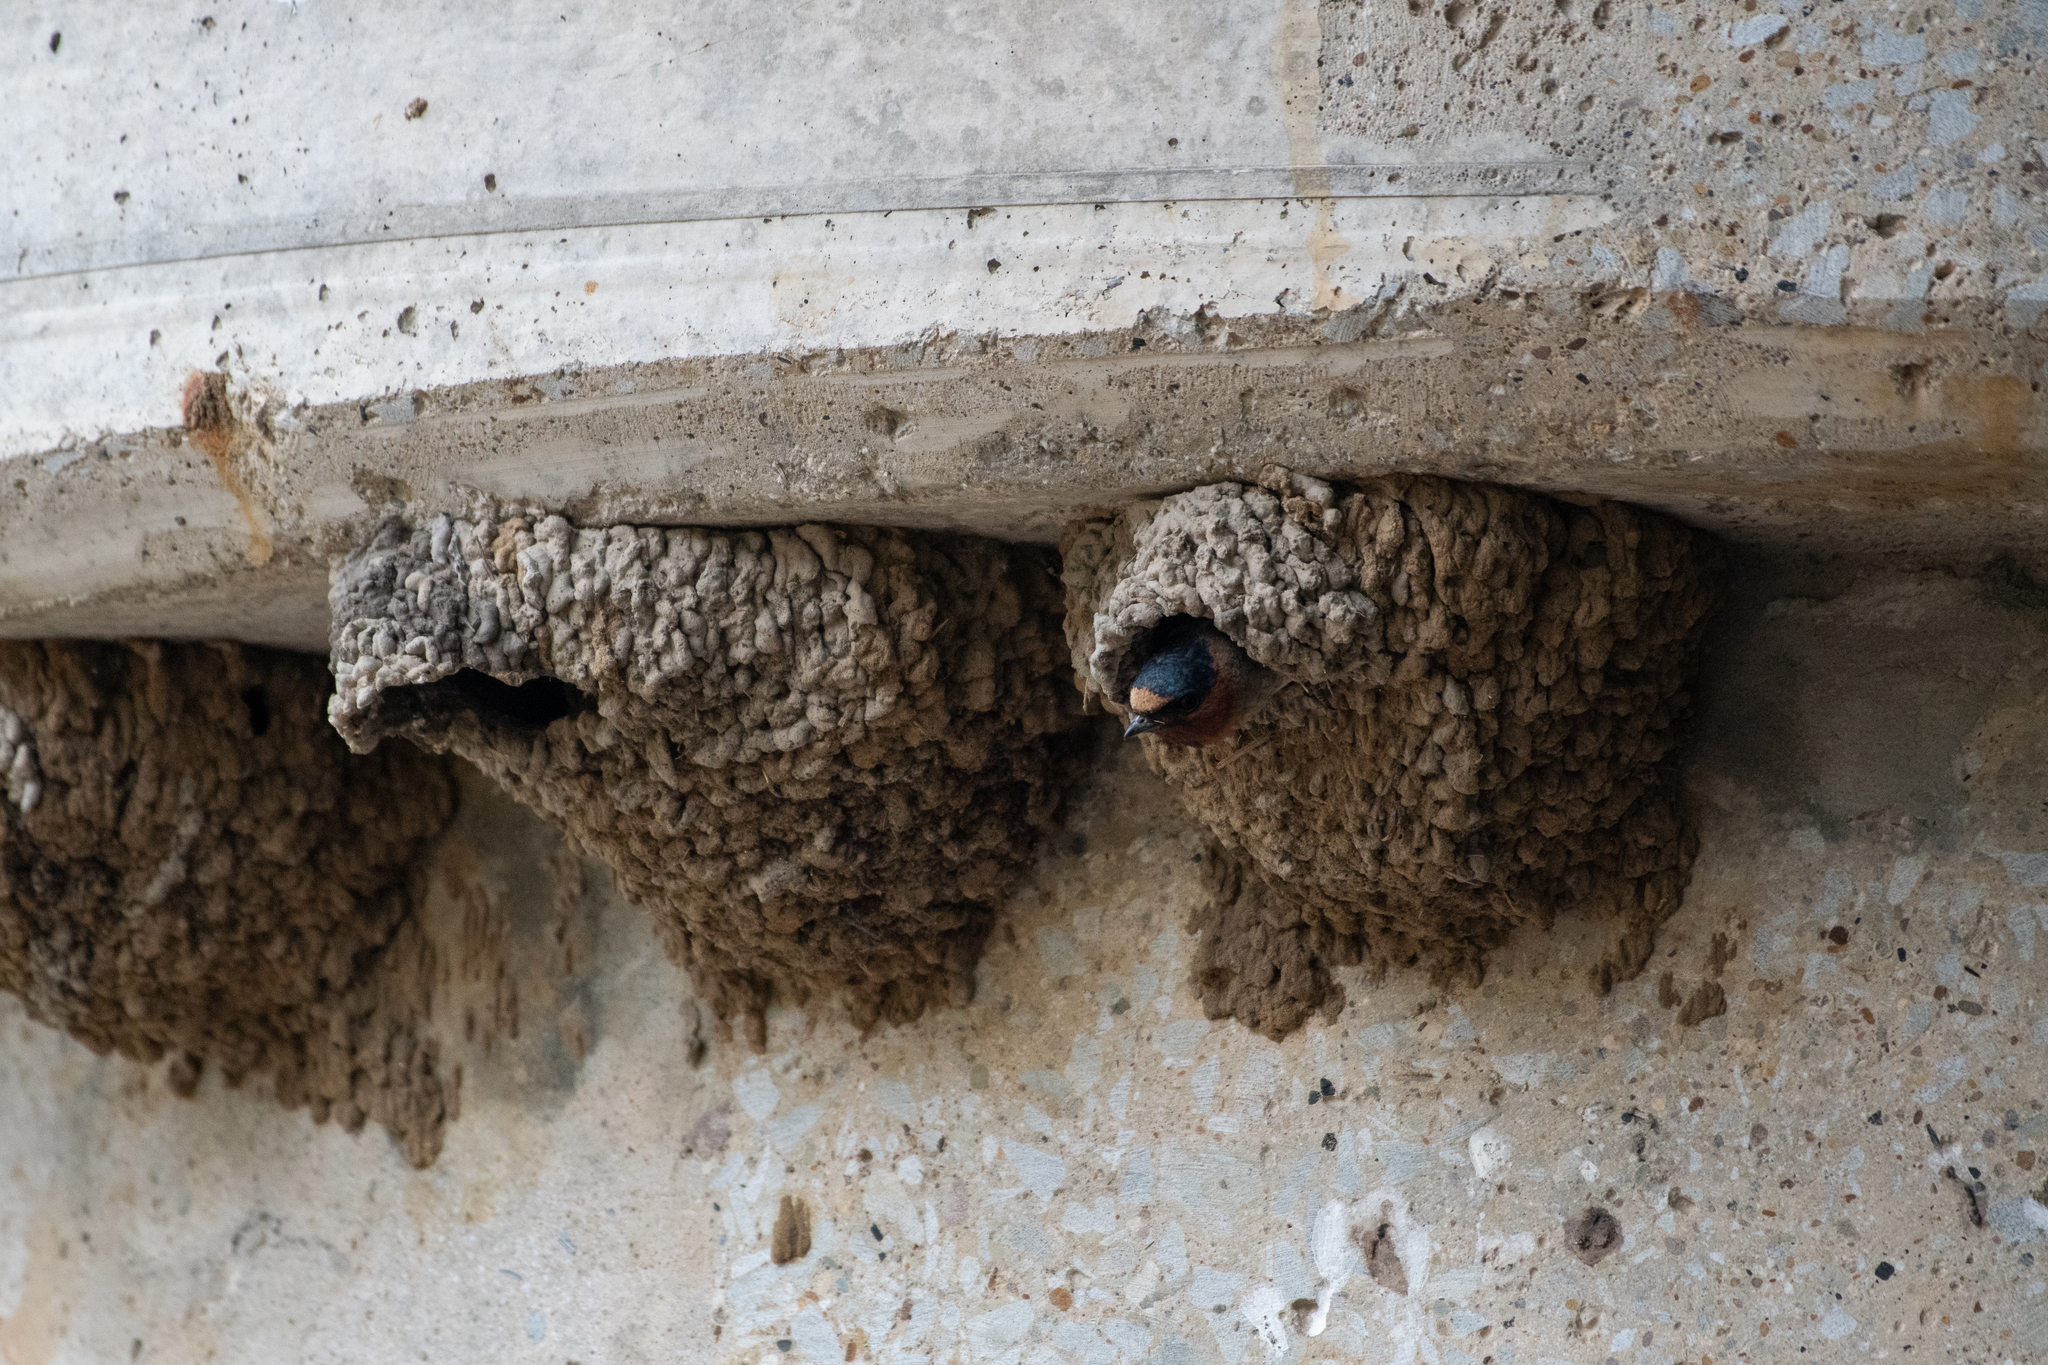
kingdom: Animalia
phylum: Chordata
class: Aves
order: Passeriformes
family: Hirundinidae
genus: Petrochelidon
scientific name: Petrochelidon pyrrhonota
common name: American cliff swallow
